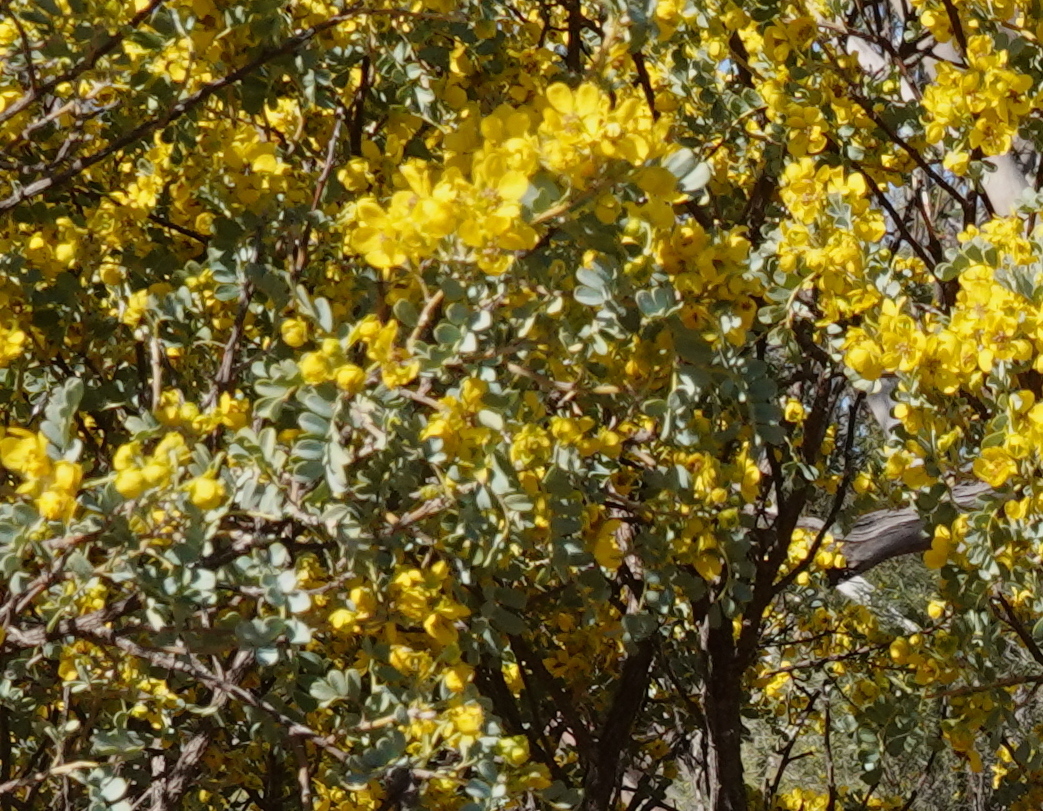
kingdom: Plantae
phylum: Tracheophyta
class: Magnoliopsida
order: Fabales
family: Fabaceae
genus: Senna
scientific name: Senna artemisioides
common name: Burnt-leaved acacia
